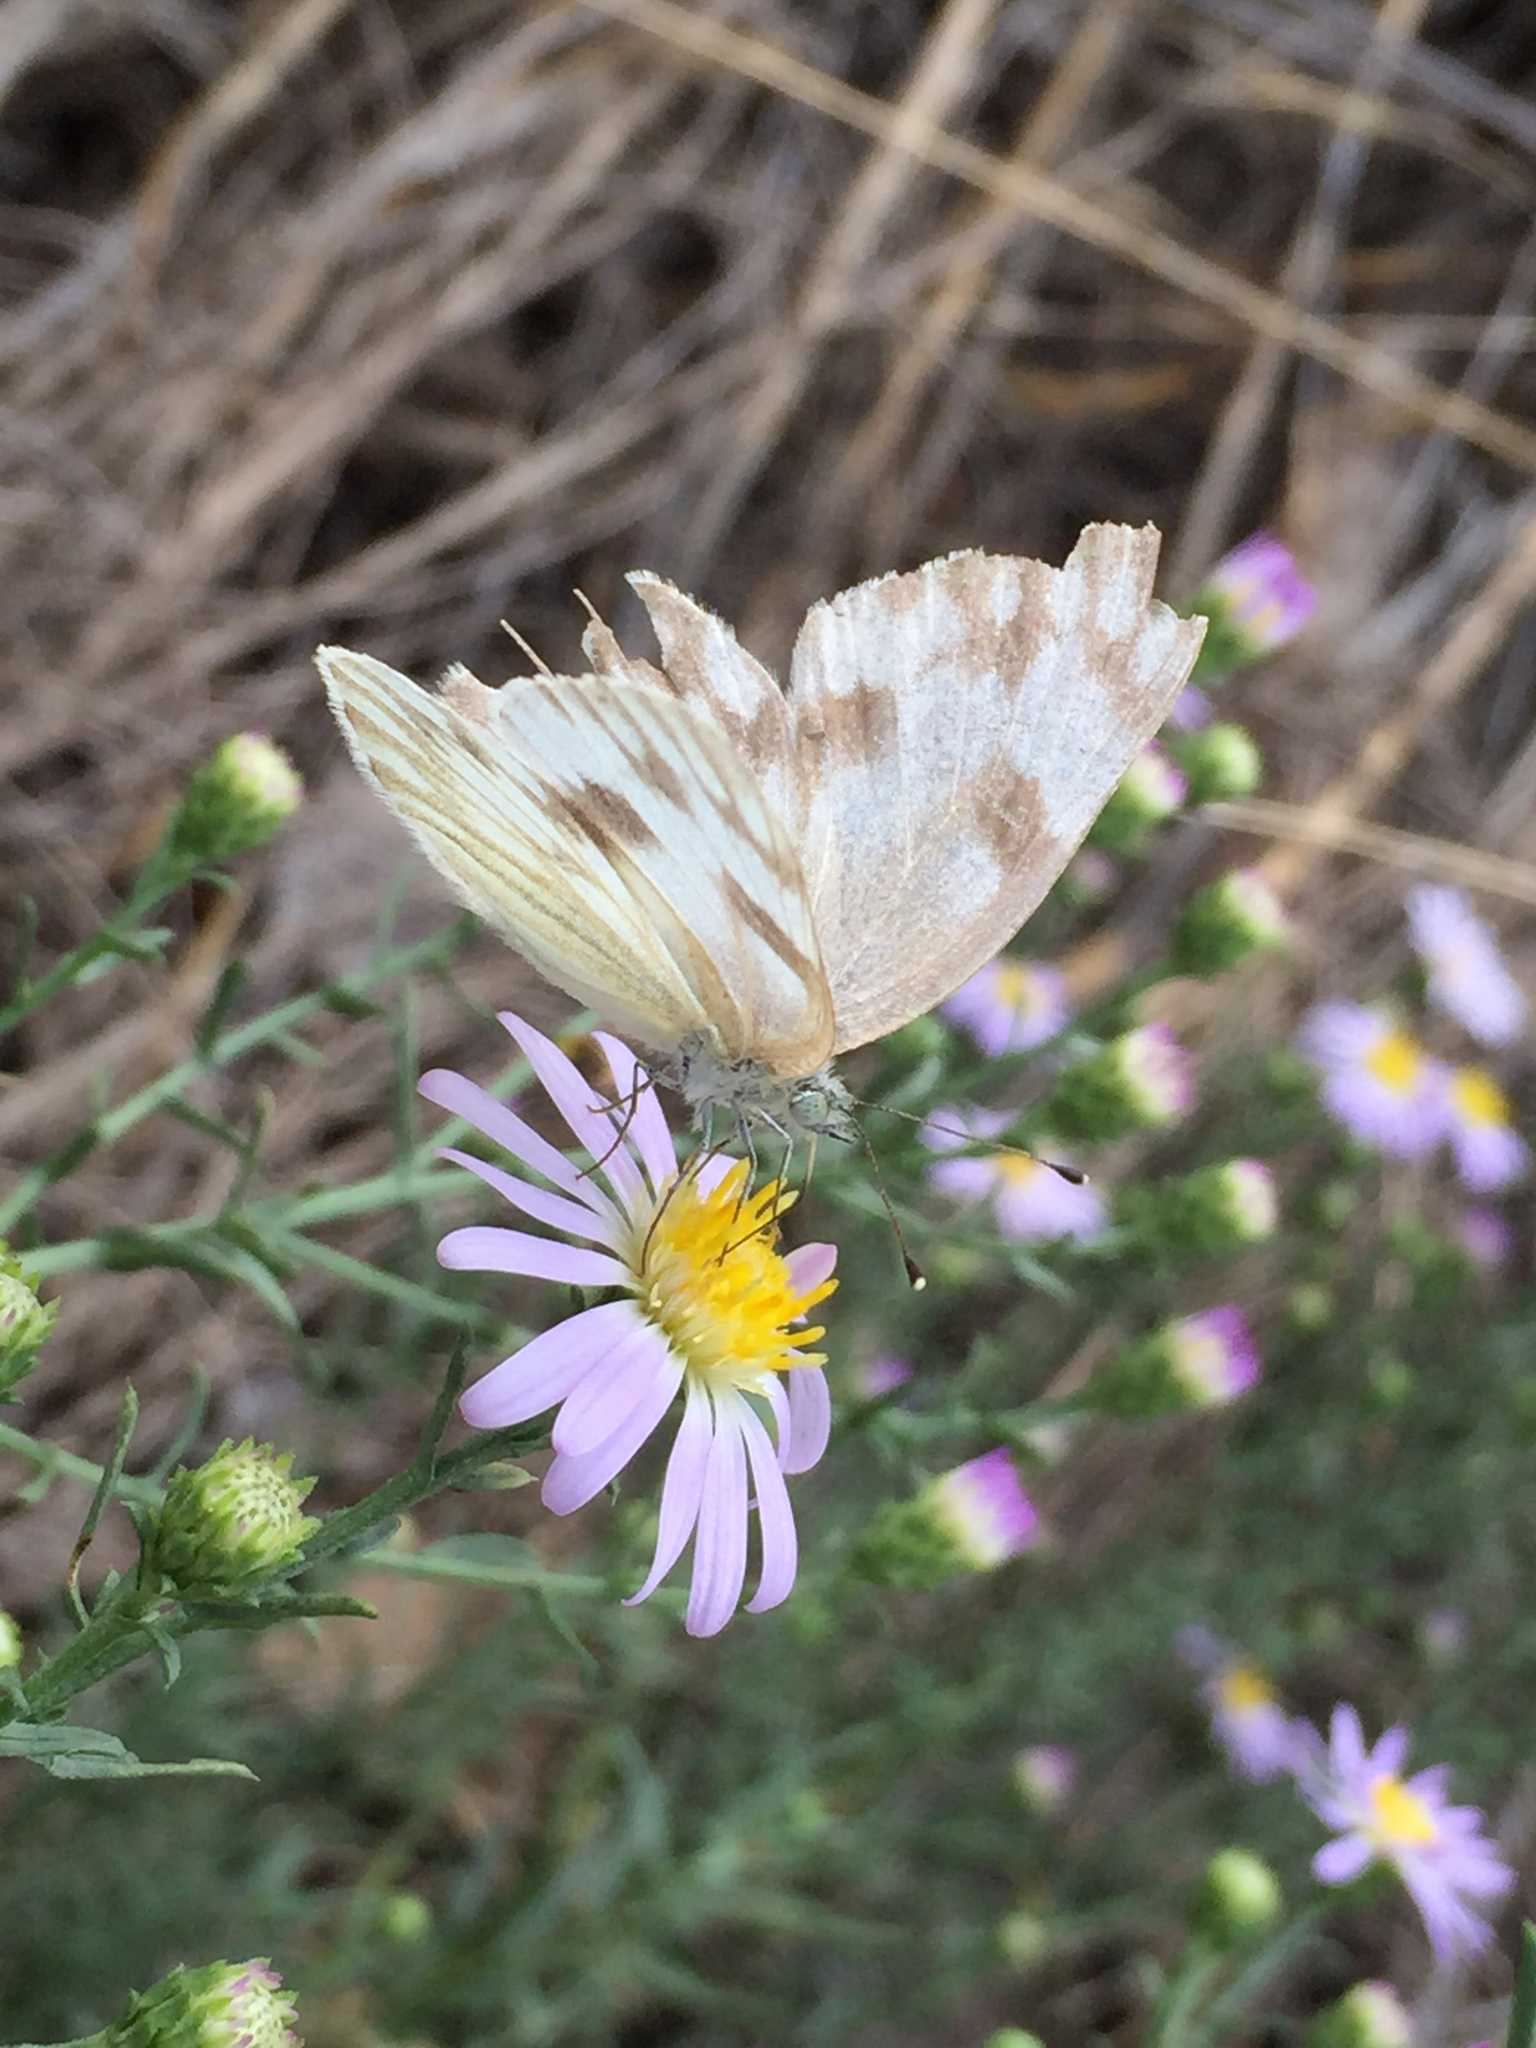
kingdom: Animalia
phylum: Arthropoda
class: Insecta
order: Lepidoptera
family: Pieridae
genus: Pontia
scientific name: Pontia protodice
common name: Checkered white
